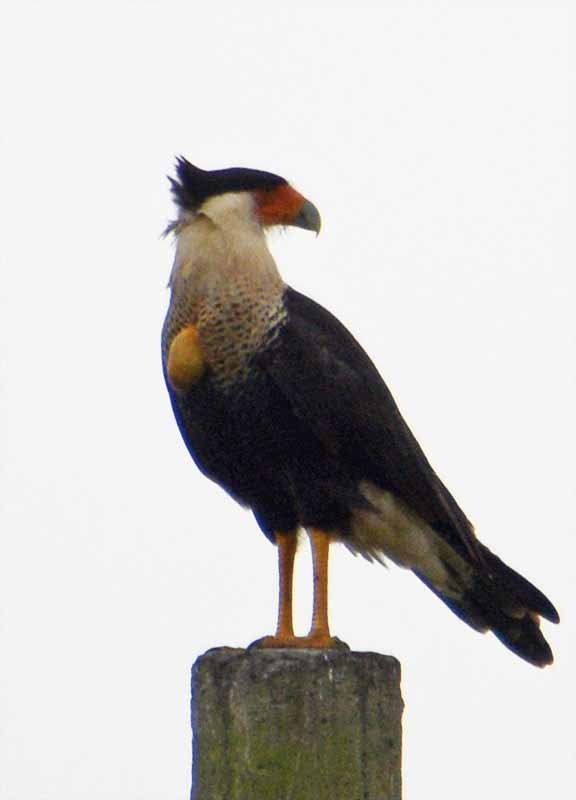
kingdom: Animalia
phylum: Chordata
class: Aves
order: Falconiformes
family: Falconidae
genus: Caracara
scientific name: Caracara plancus
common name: Southern caracara
